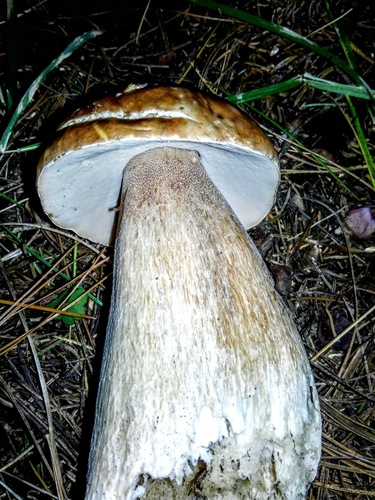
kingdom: Fungi
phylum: Basidiomycota
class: Agaricomycetes
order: Boletales
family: Boletaceae
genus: Boletus
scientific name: Boletus edulis
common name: Cep
